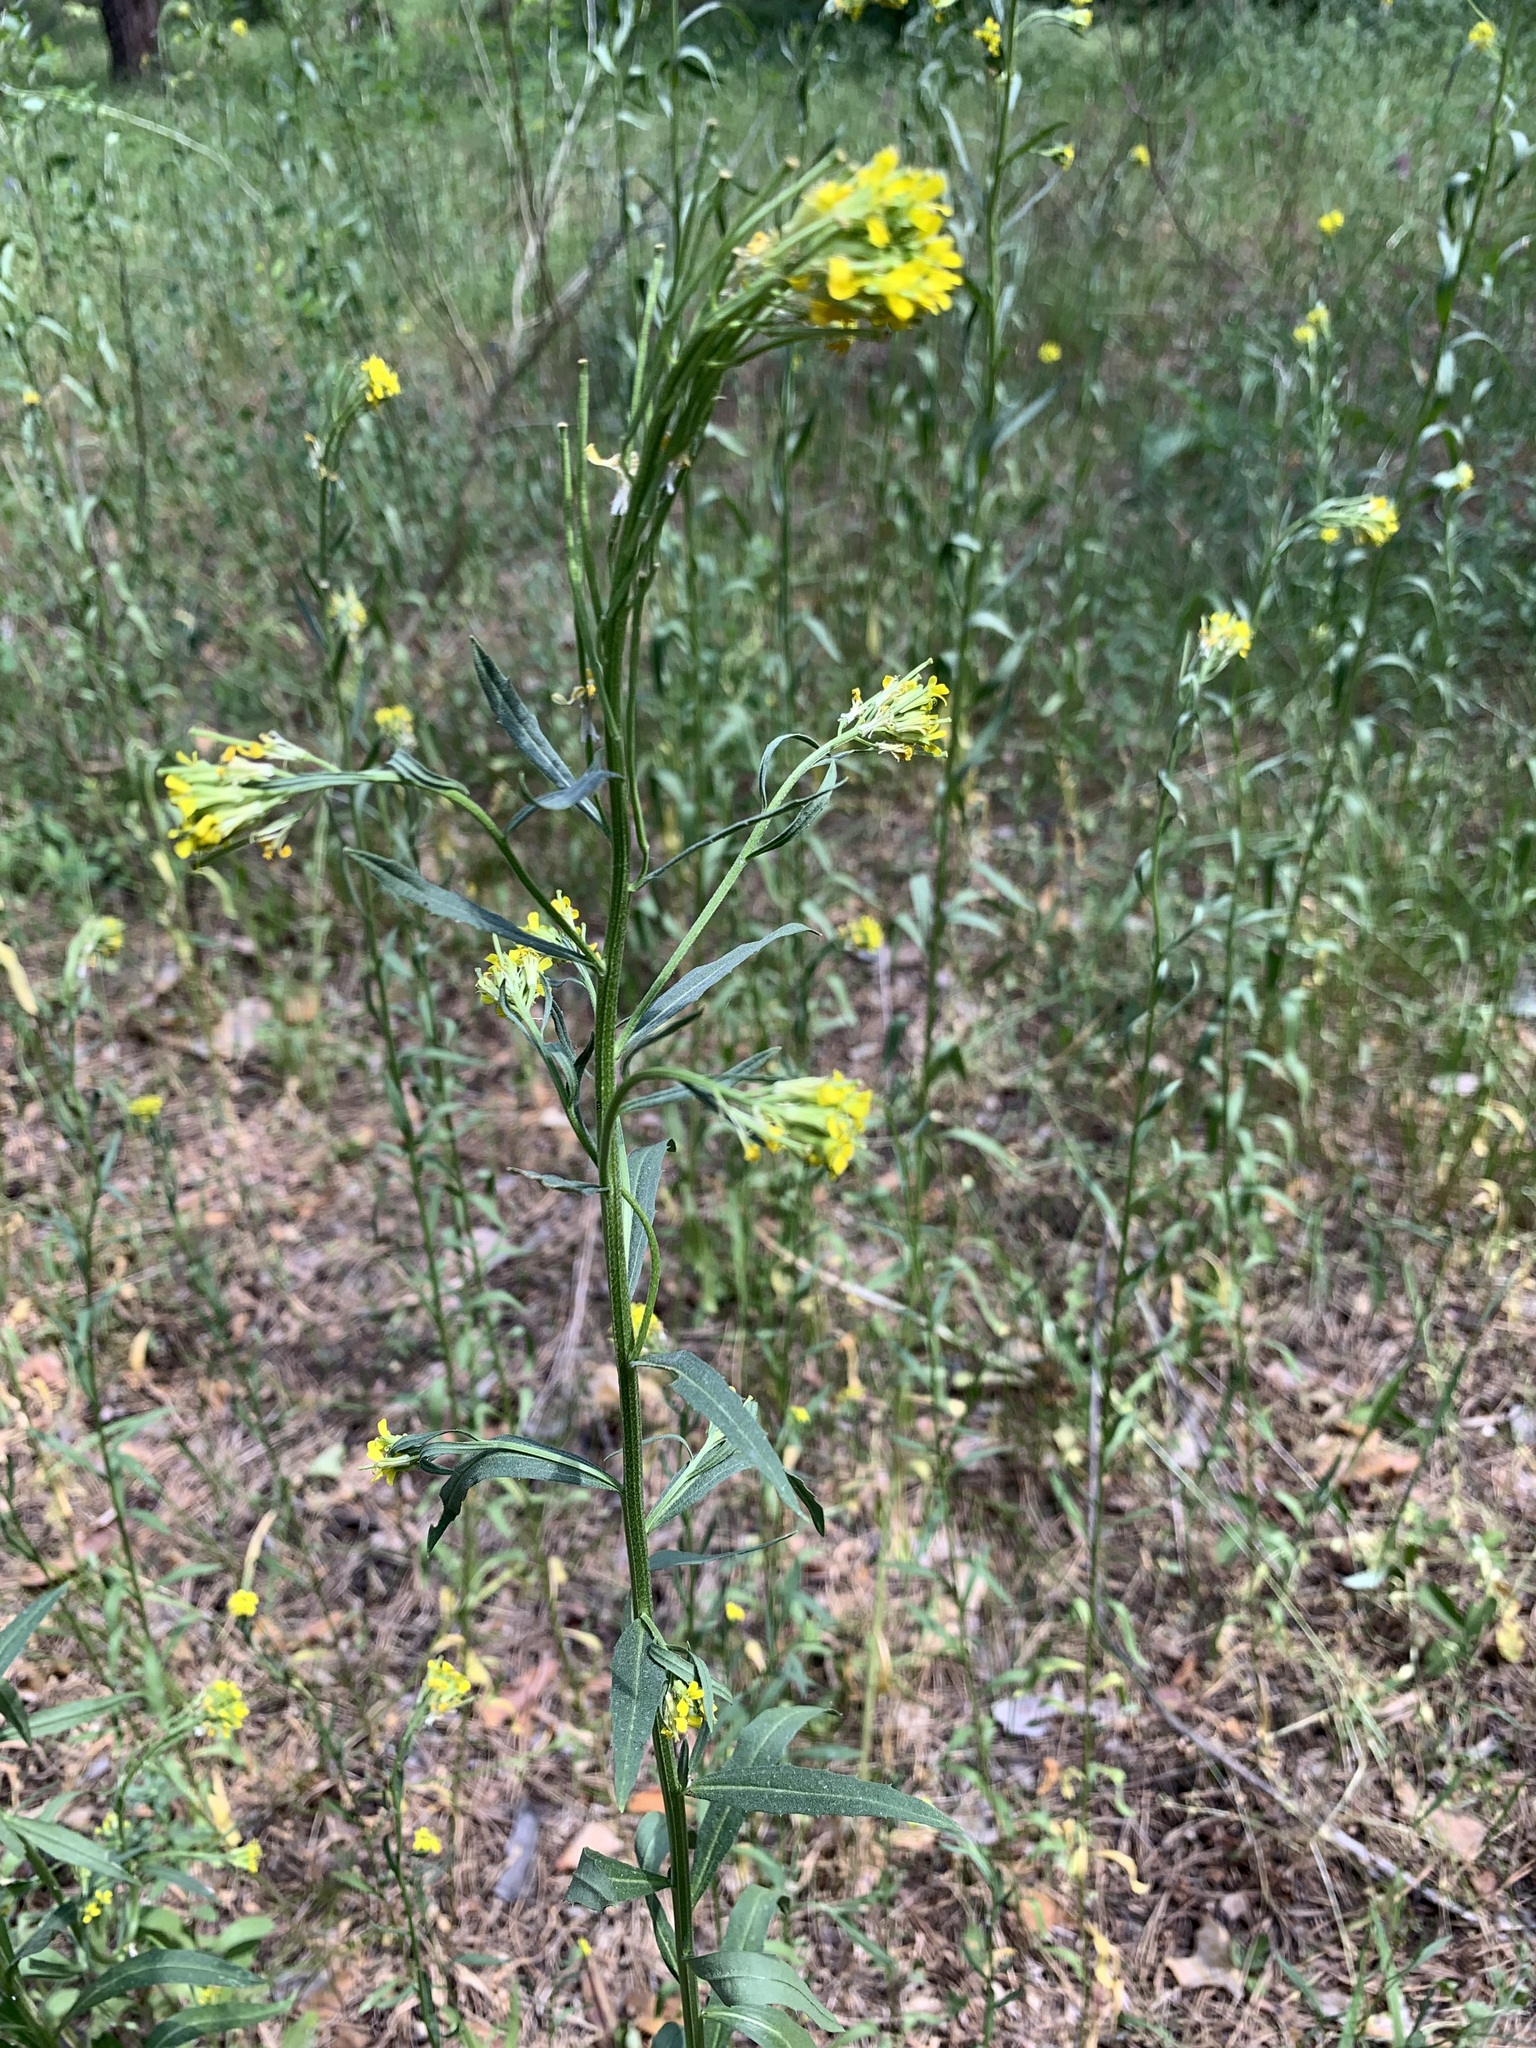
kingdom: Plantae
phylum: Tracheophyta
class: Magnoliopsida
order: Brassicales
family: Brassicaceae
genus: Erysimum
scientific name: Erysimum hieraciifolium
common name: European wallflower
